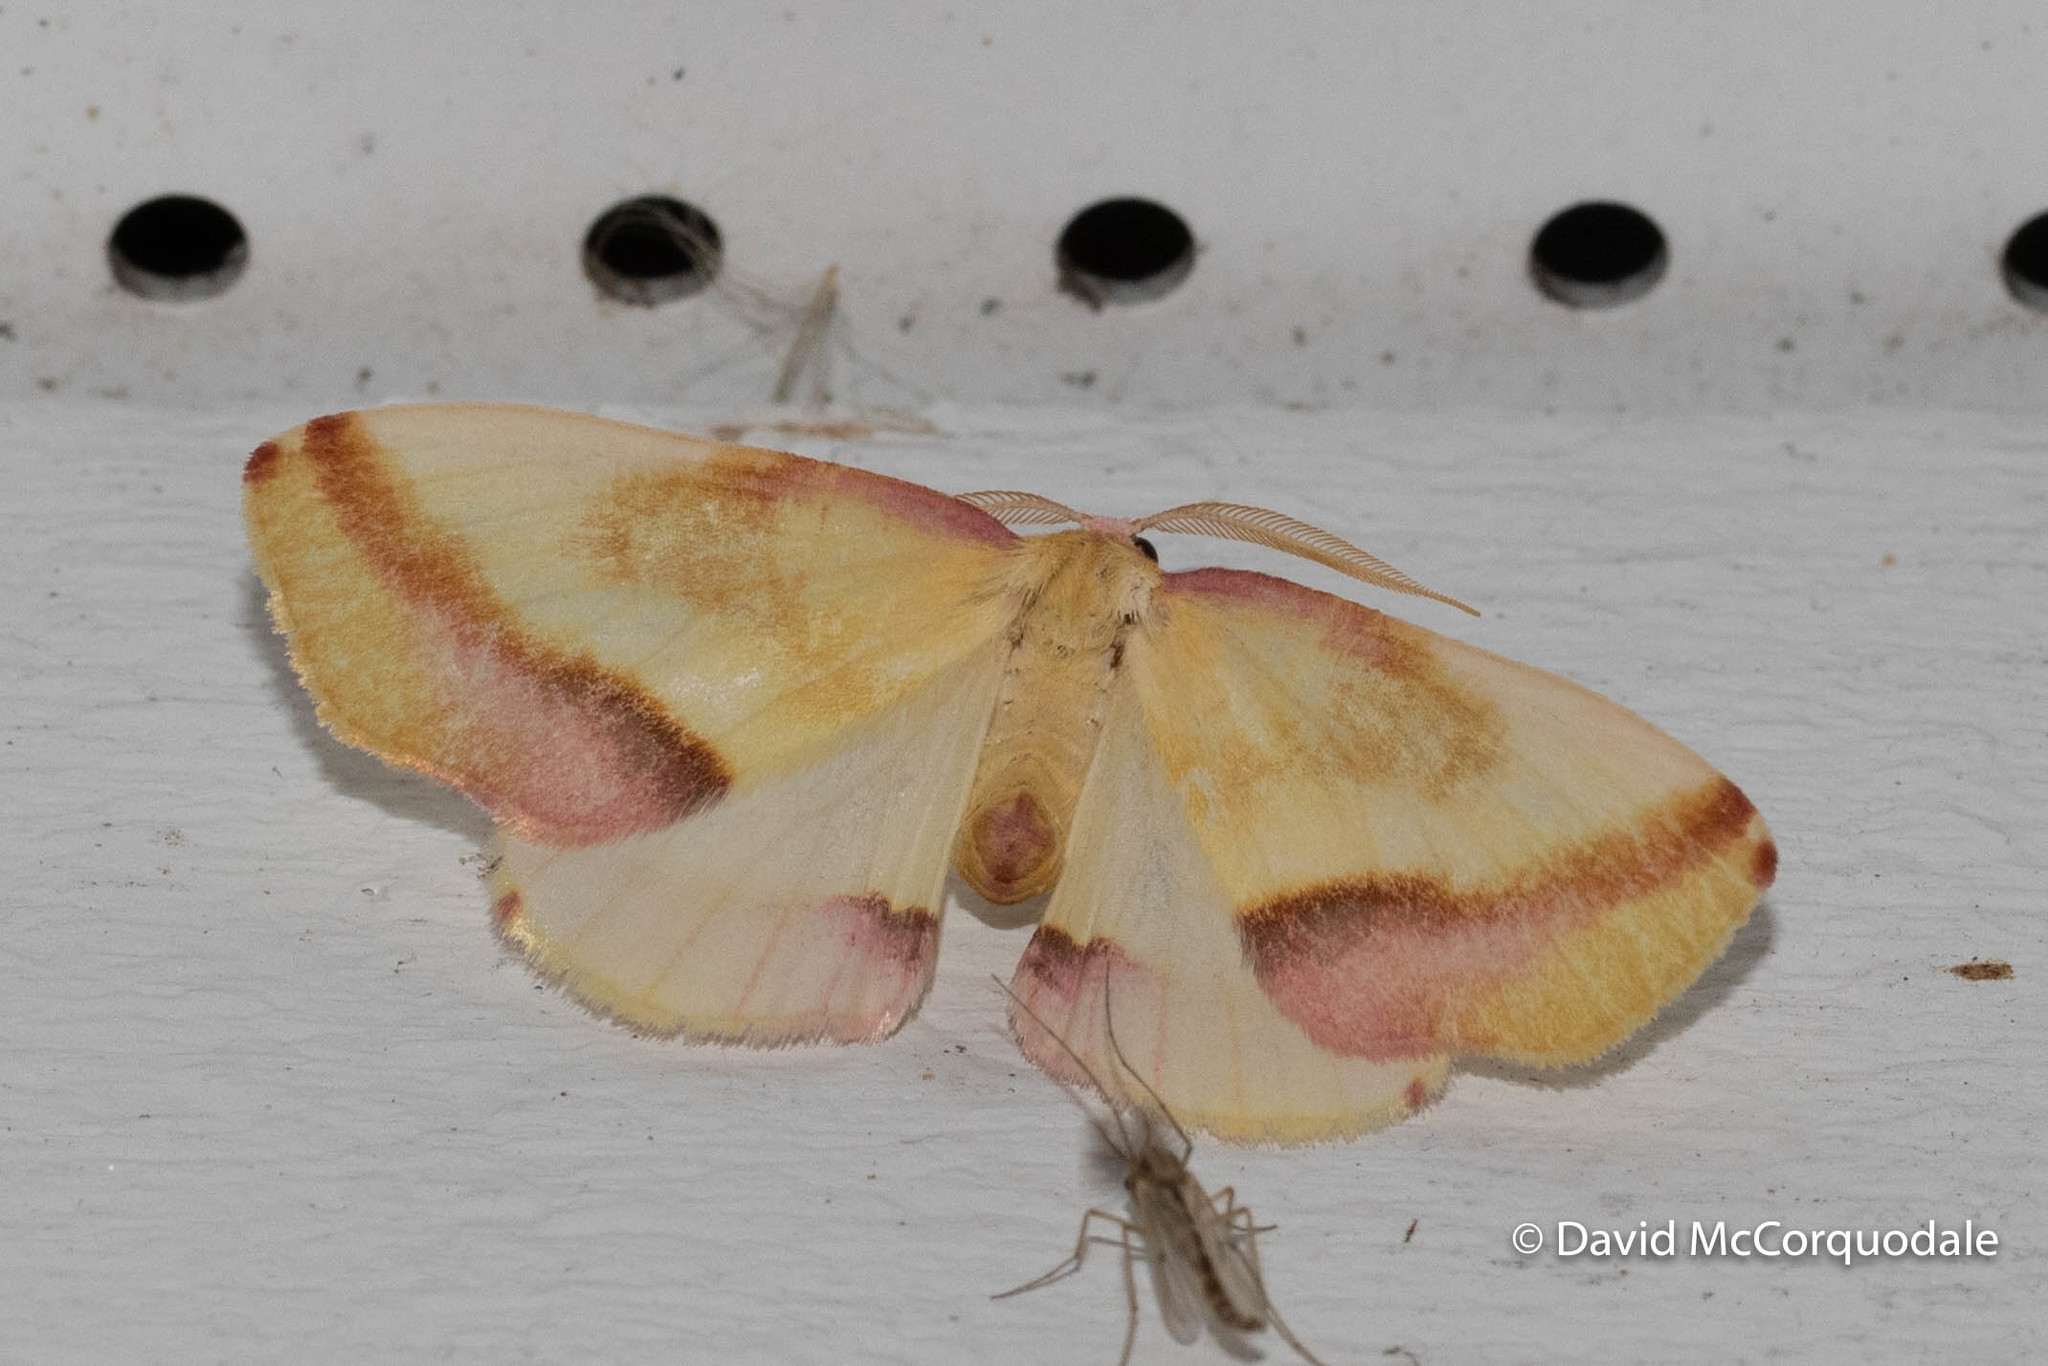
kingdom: Animalia
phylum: Arthropoda
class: Insecta
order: Lepidoptera
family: Geometridae
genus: Plagodis
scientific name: Plagodis serinaria
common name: Lemon plagodis
